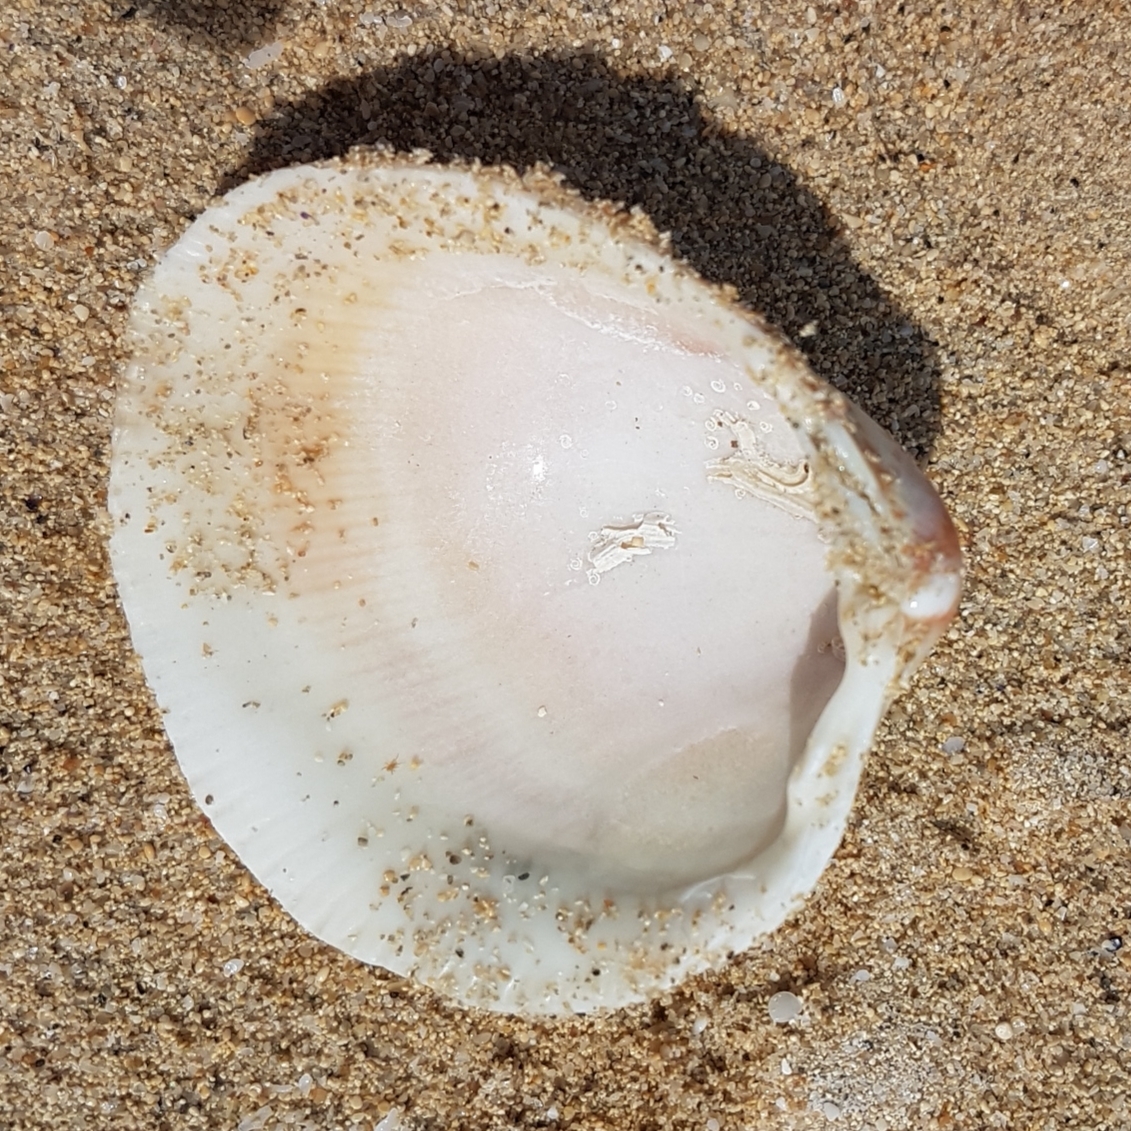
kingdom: Animalia
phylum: Mollusca
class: Bivalvia
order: Cardiida
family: Cardiidae
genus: Laevicardium
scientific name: Laevicardium crassum
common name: Norway cockle
